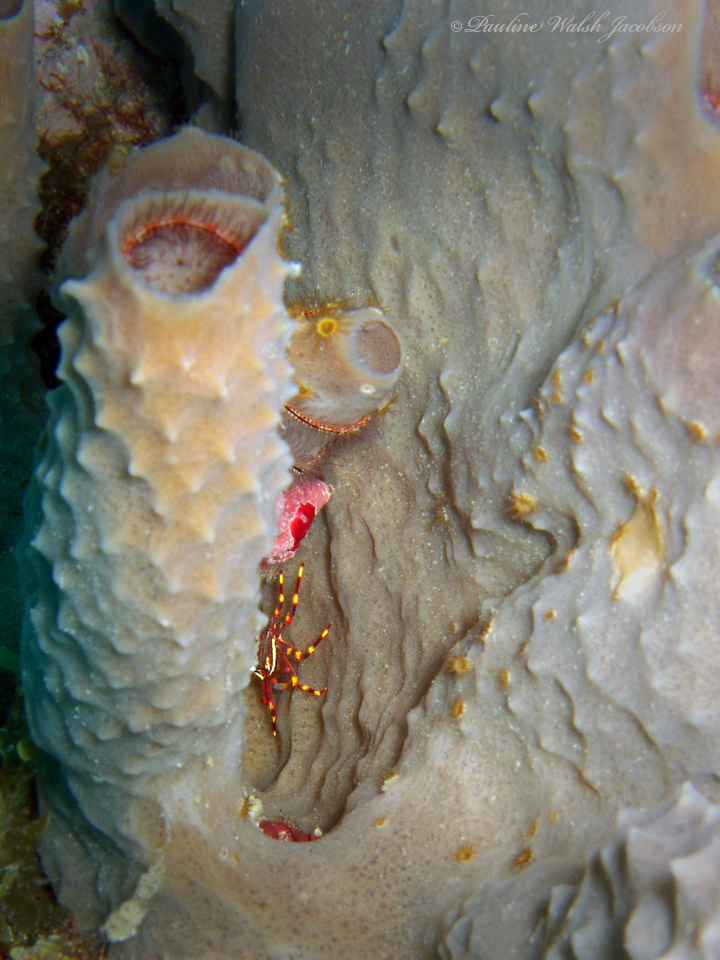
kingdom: Animalia
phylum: Arthropoda
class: Malacostraca
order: Decapoda
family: Percnidae
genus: Percnon
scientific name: Percnon gibbesi
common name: Nimble spray crab
